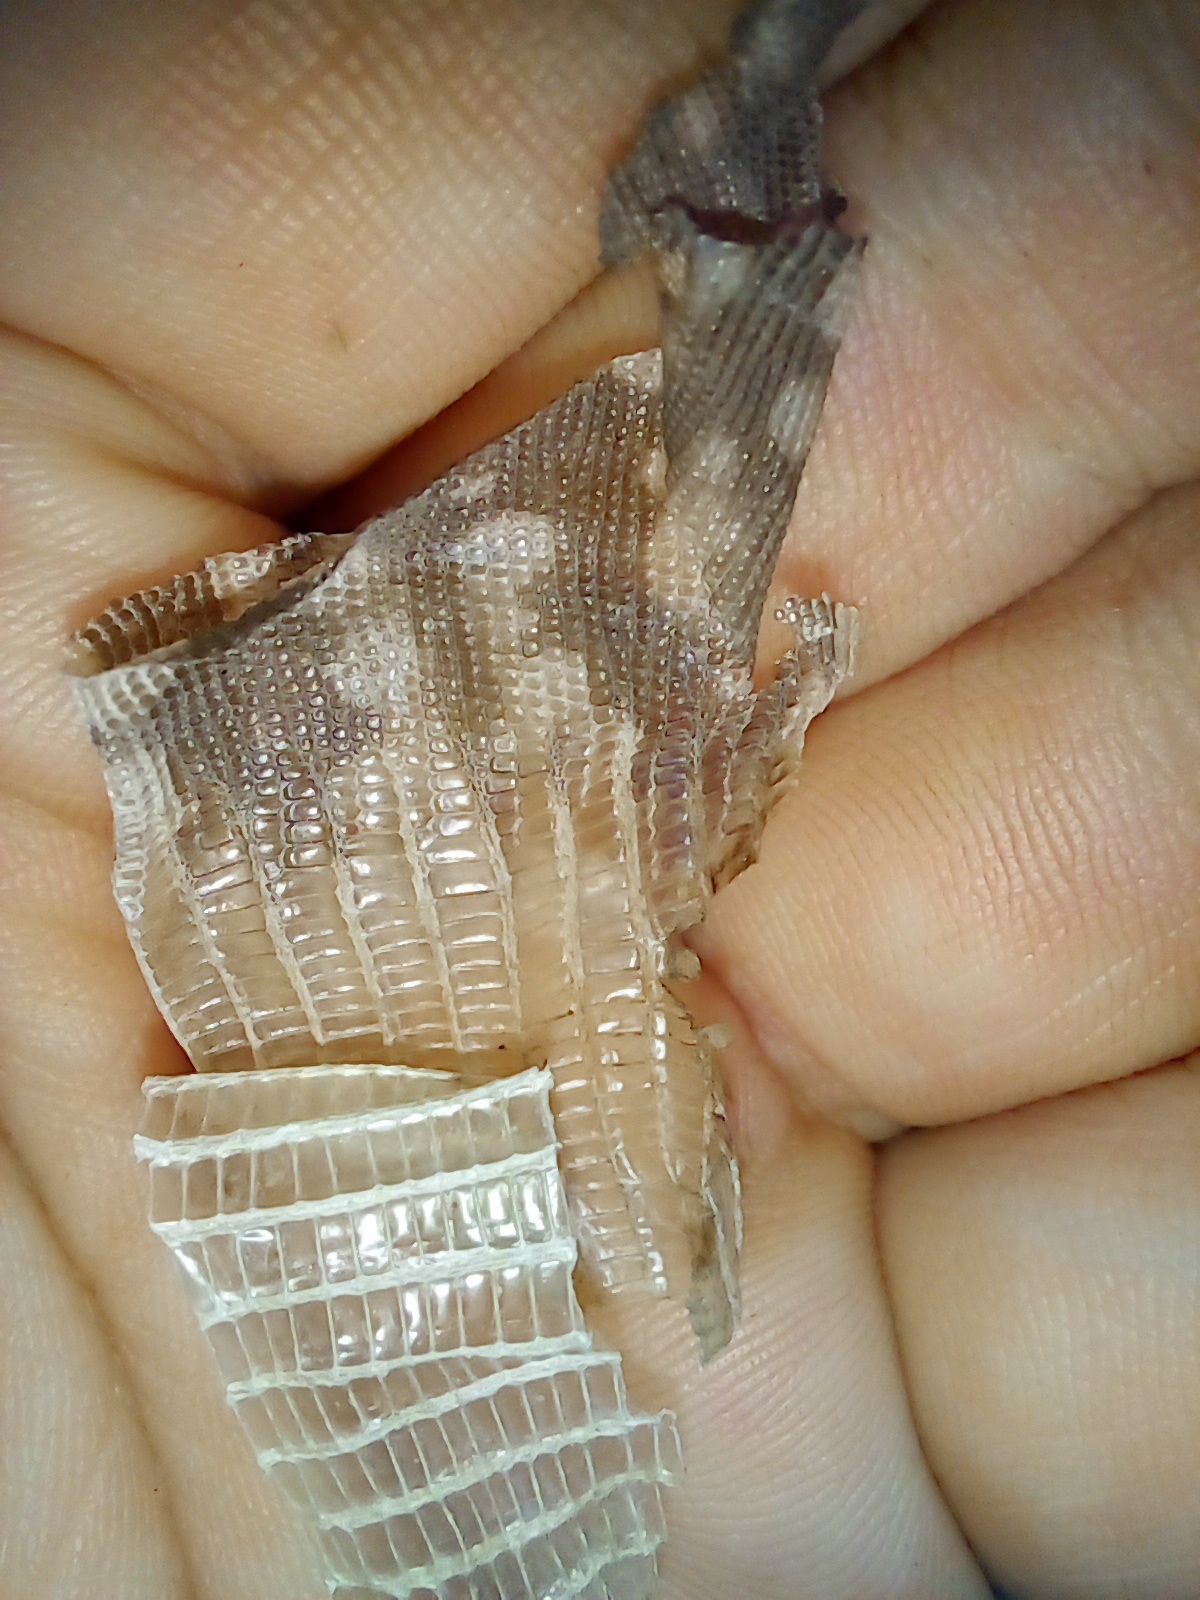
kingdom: Animalia
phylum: Chordata
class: Squamata
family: Teiidae
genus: Salvator
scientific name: Salvator merianae
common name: Argentine black and white tegu
